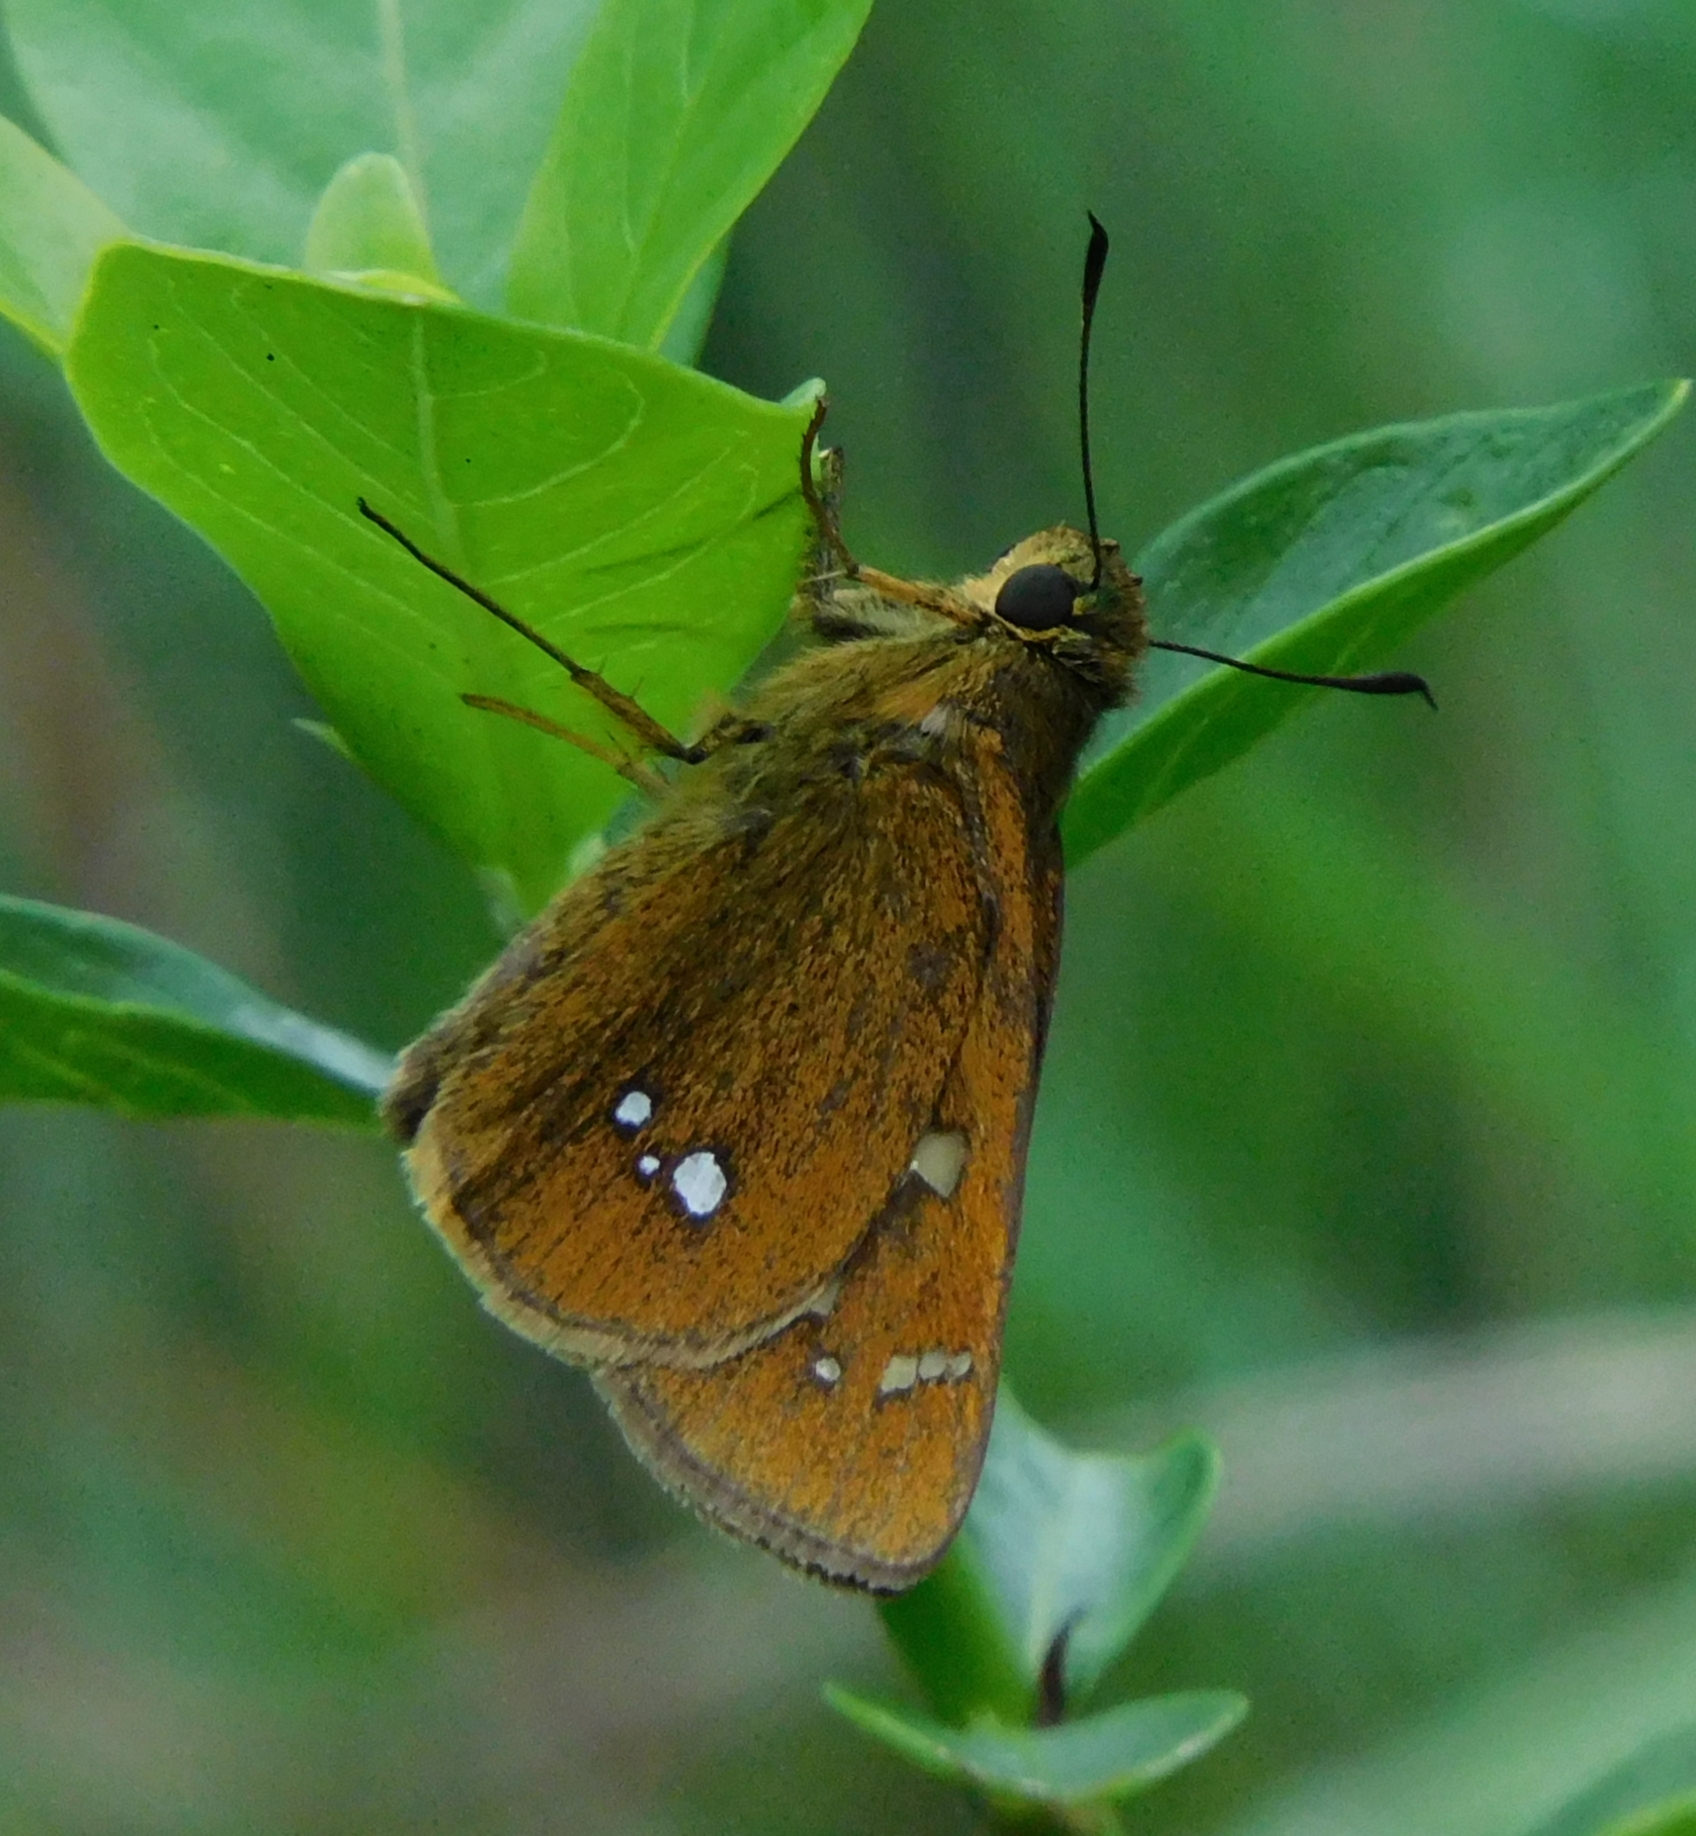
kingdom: Animalia
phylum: Arthropoda
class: Insecta
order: Lepidoptera
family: Hesperiidae
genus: Polytremis
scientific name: Polytremis eltola
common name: Yellow-spot swift
